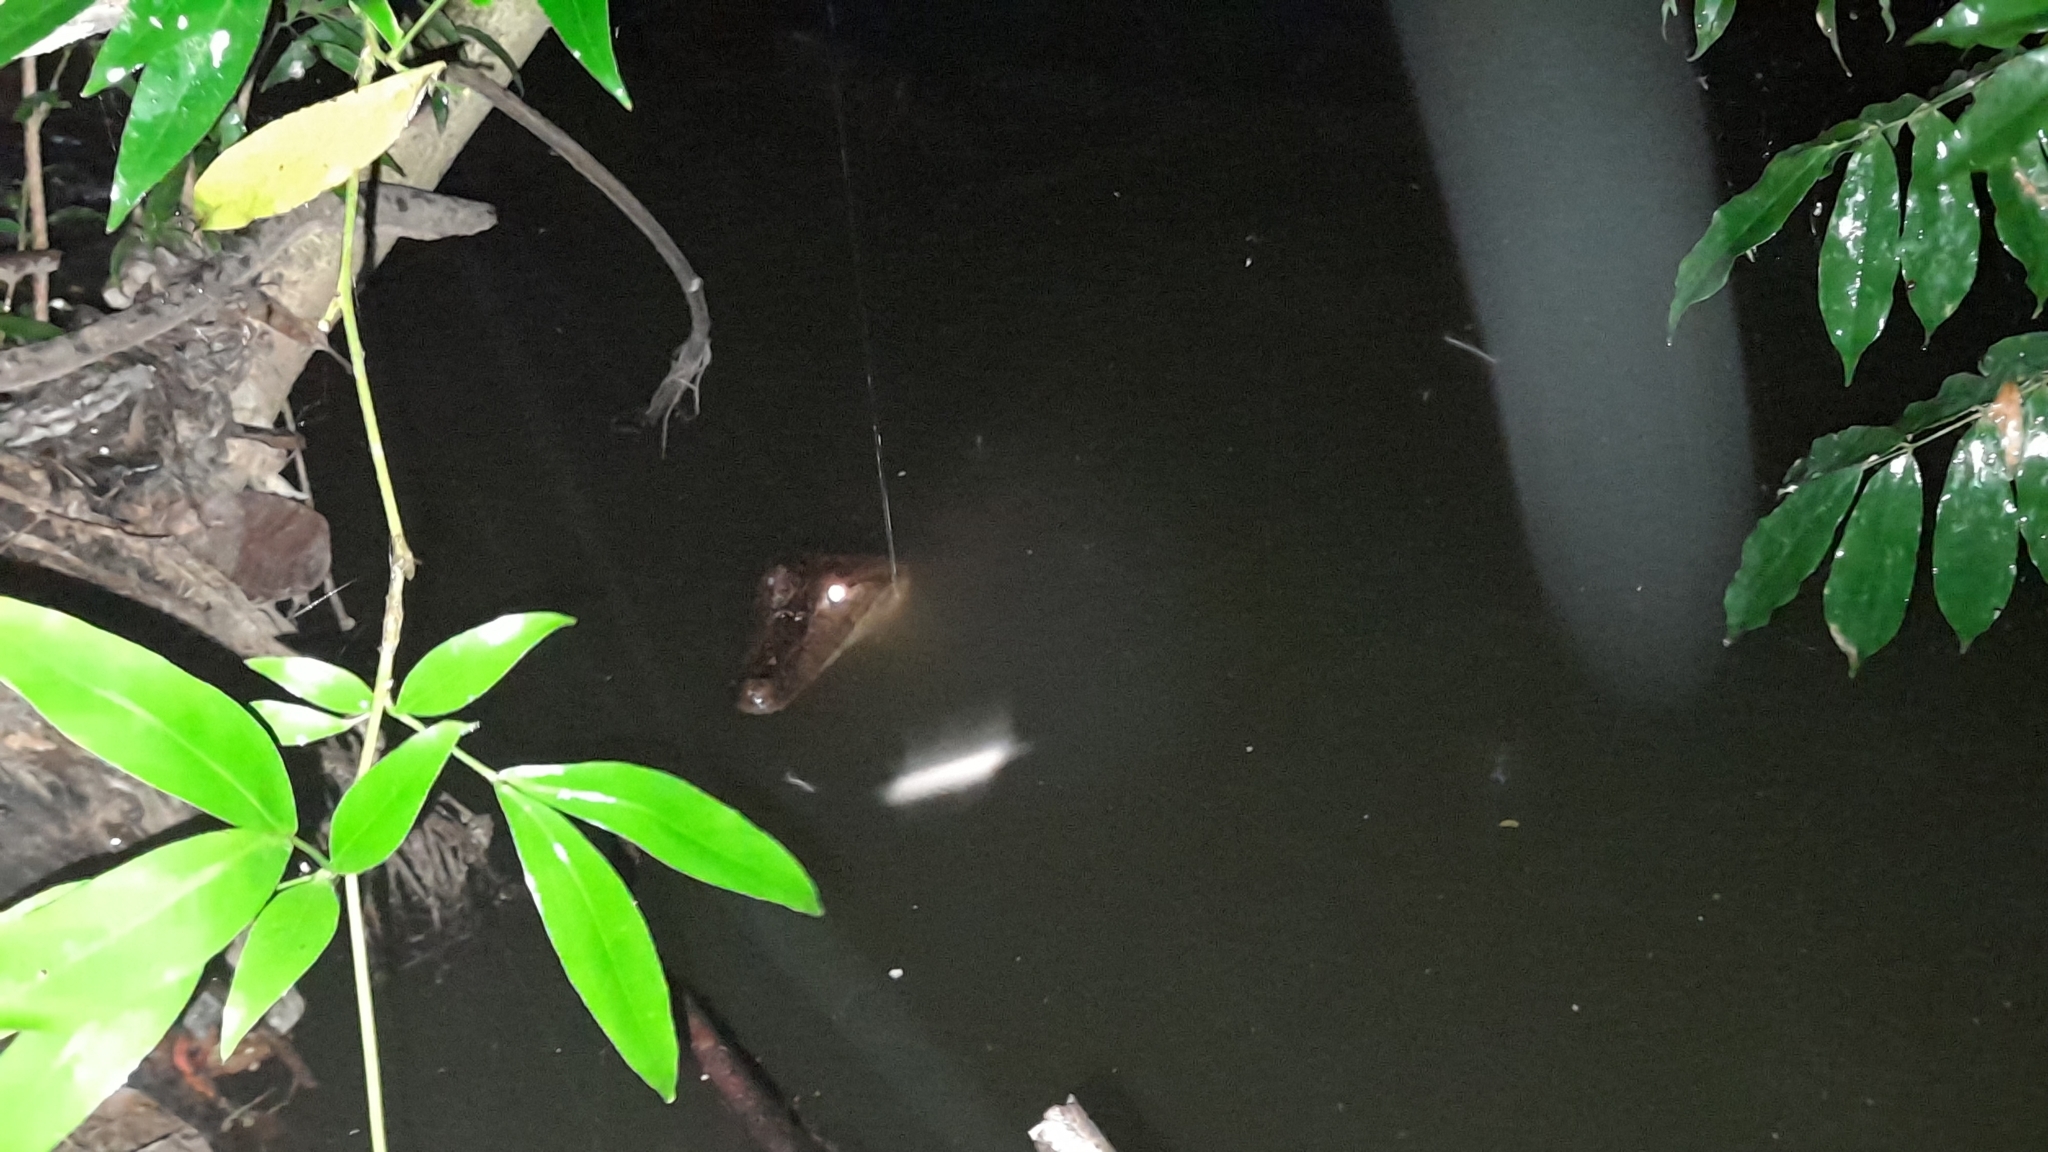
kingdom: Animalia
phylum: Chordata
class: Crocodylia
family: Alligatoridae
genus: Caiman
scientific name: Caiman crocodilus
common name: Common caiman
